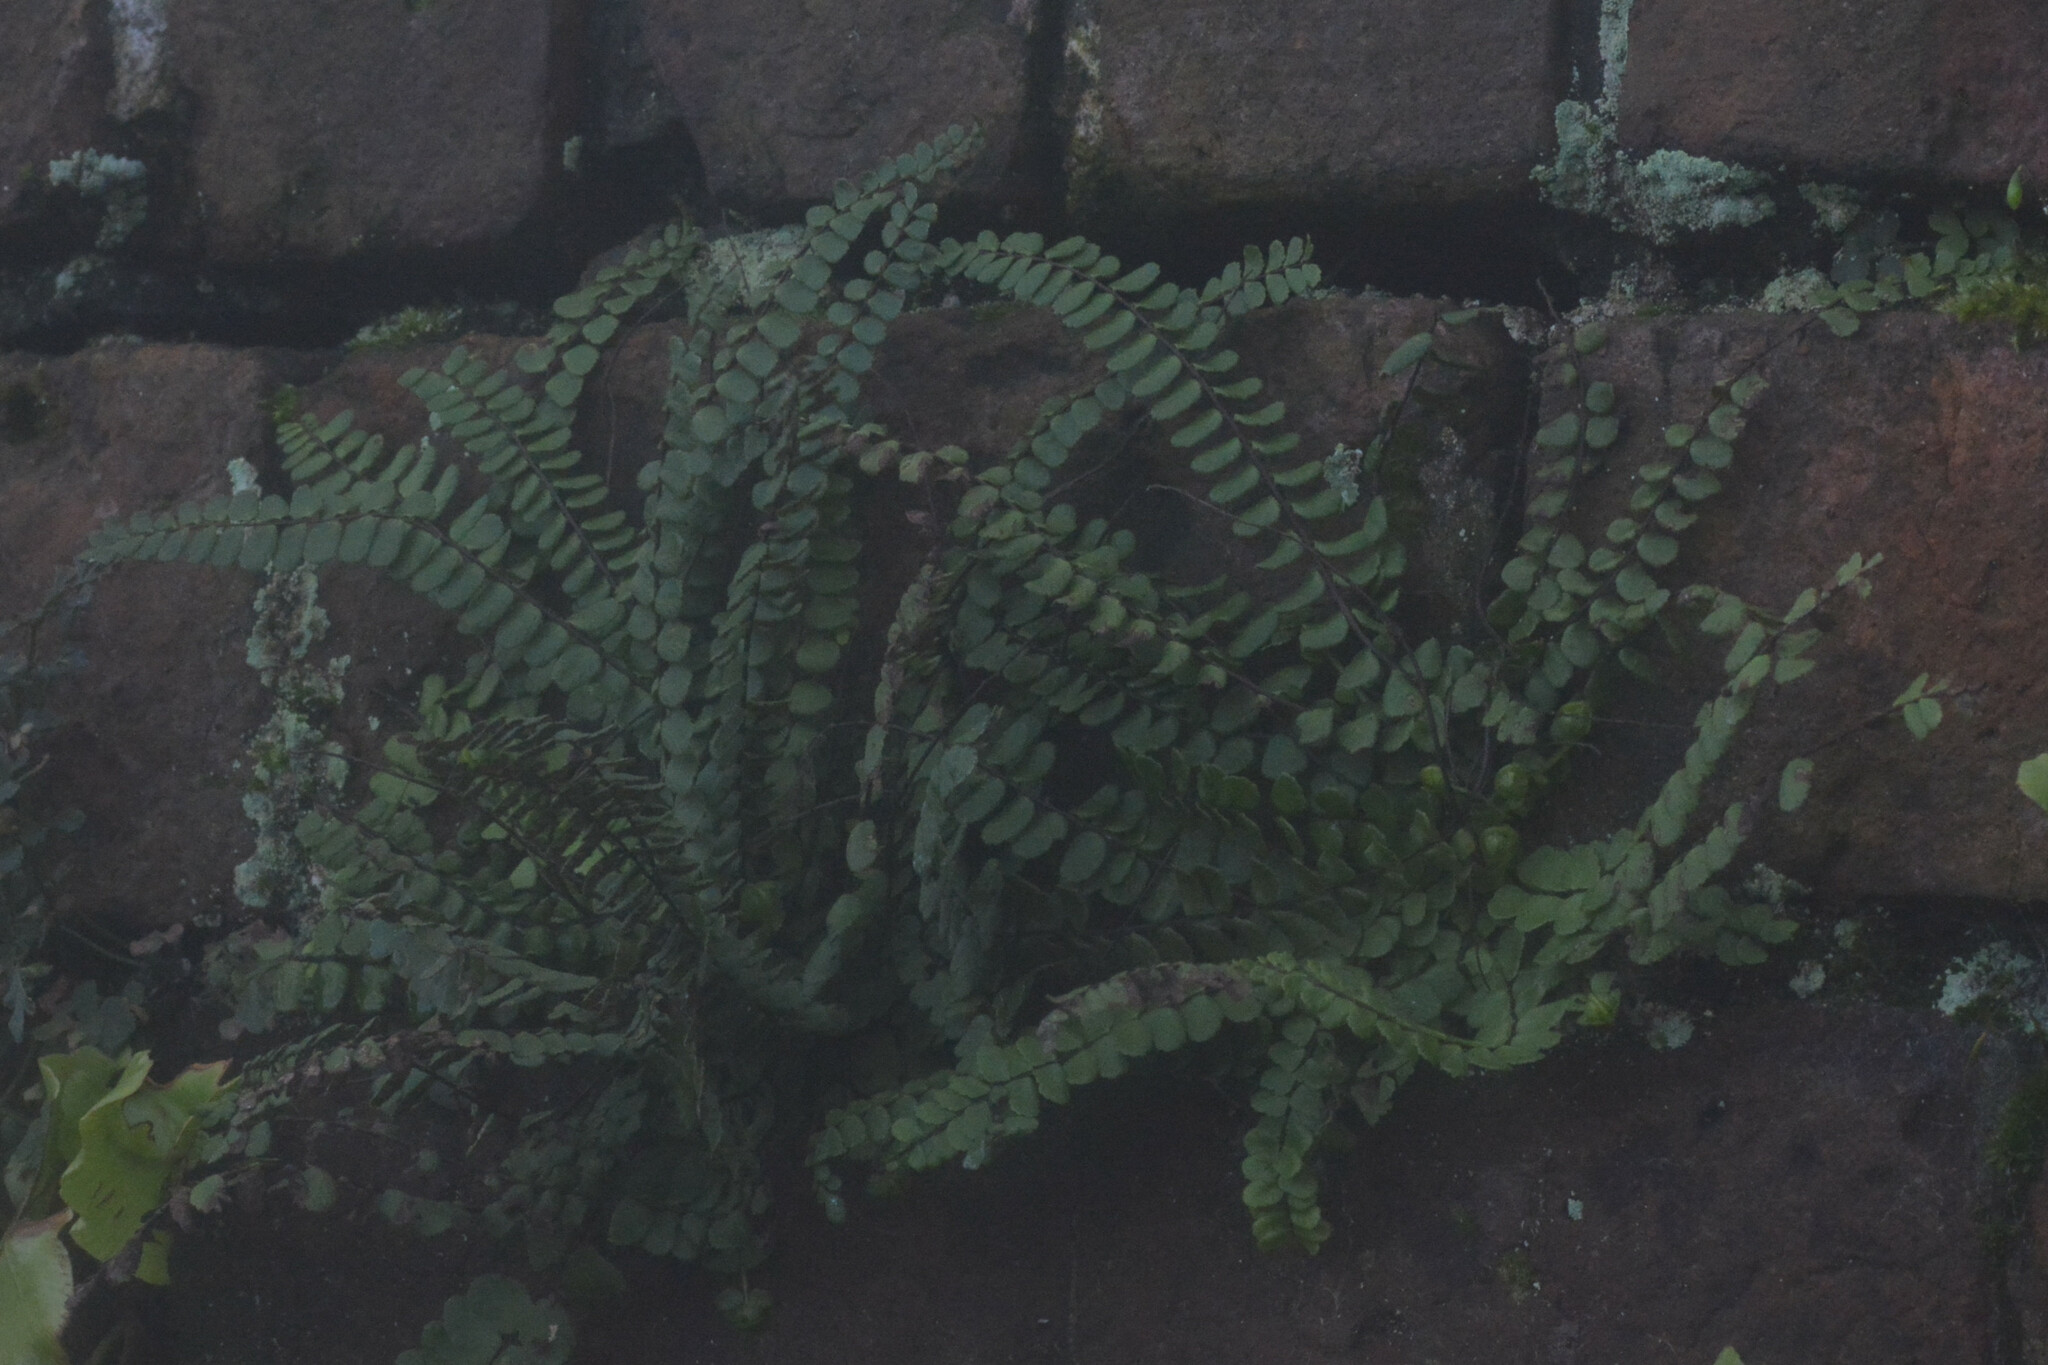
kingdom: Plantae
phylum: Tracheophyta
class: Polypodiopsida
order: Polypodiales
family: Aspleniaceae
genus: Asplenium
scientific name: Asplenium trichomanes
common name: Maidenhair spleenwort
